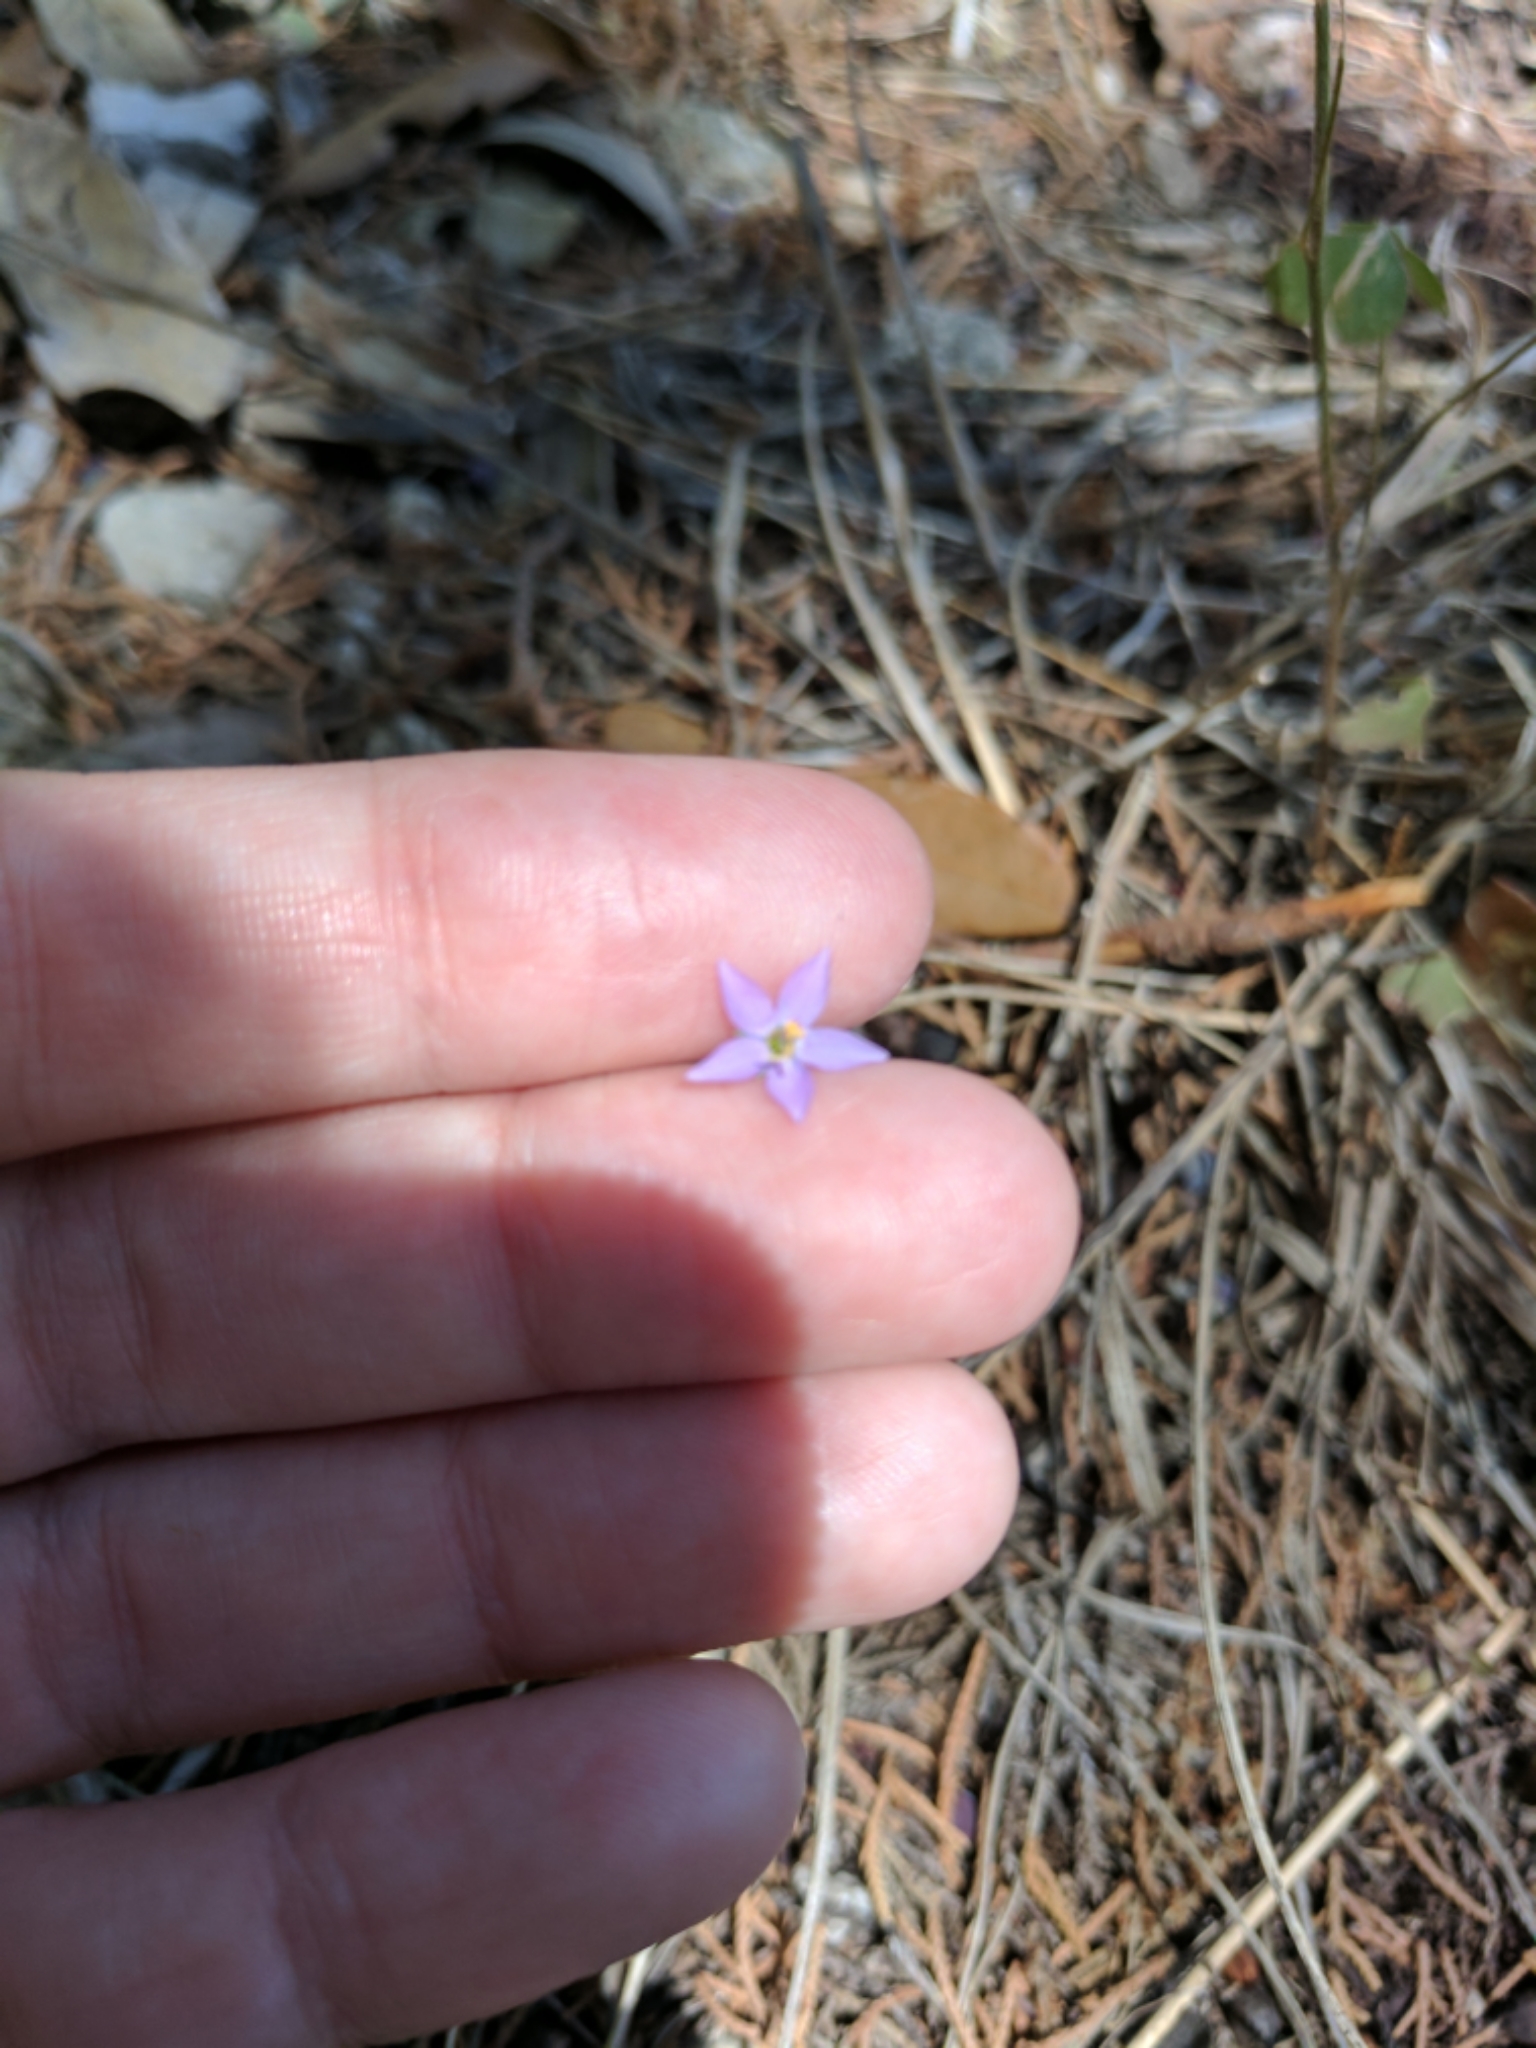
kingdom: Plantae
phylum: Tracheophyta
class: Magnoliopsida
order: Ericales
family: Polemoniaceae
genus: Giliastrum
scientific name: Giliastrum incisum
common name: Splitleaf gilia
